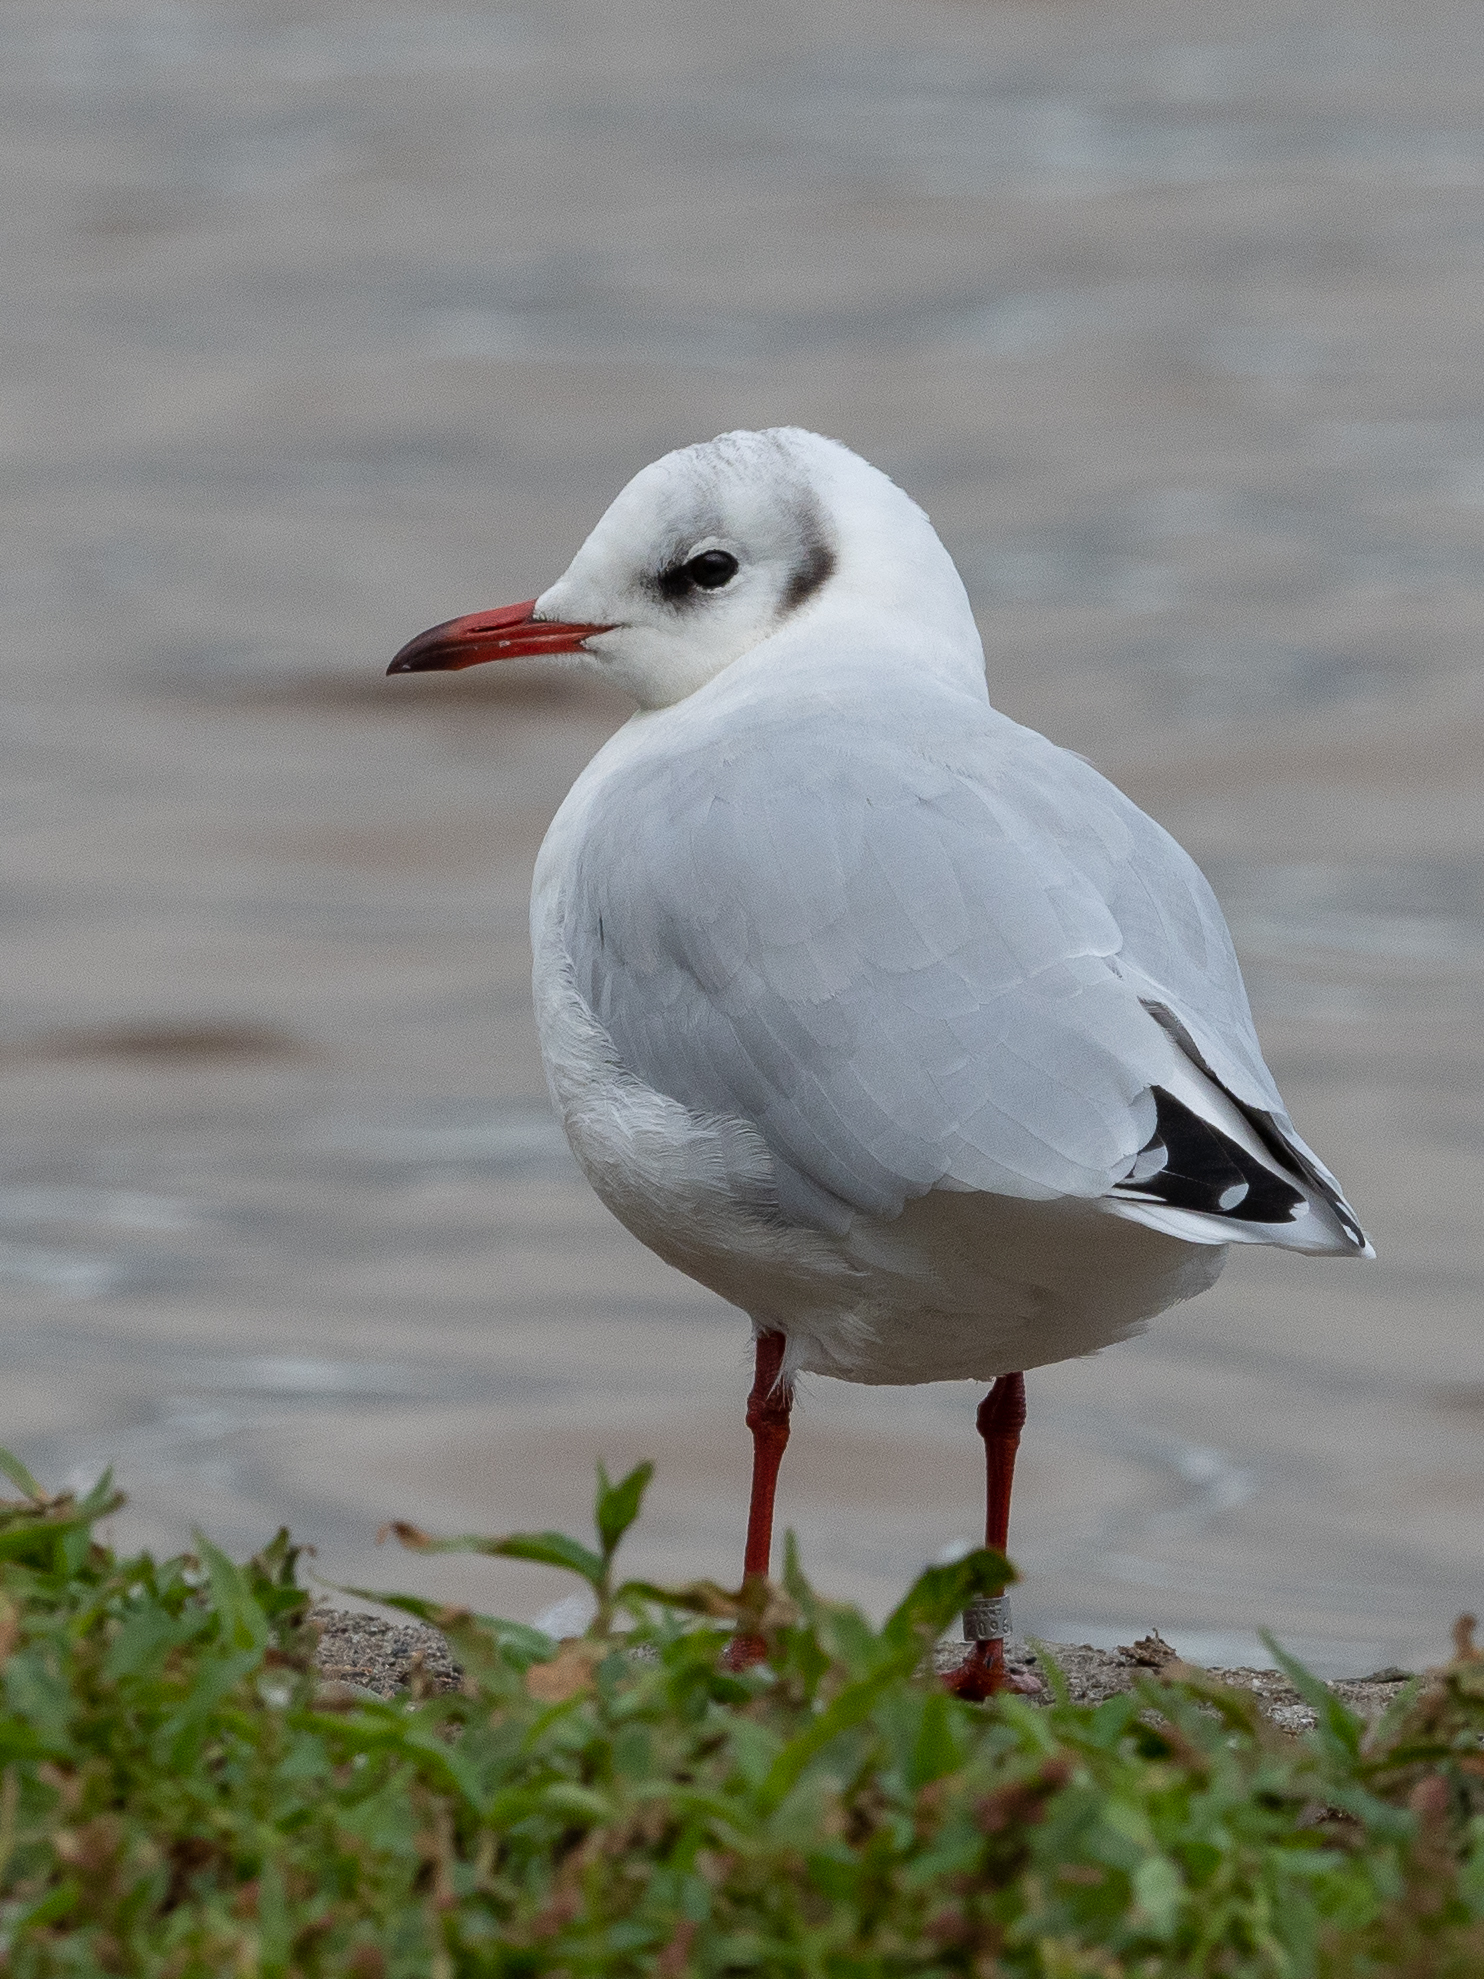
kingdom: Animalia
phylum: Chordata
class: Aves
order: Charadriiformes
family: Laridae
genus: Chroicocephalus
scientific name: Chroicocephalus ridibundus
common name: Black-headed gull
